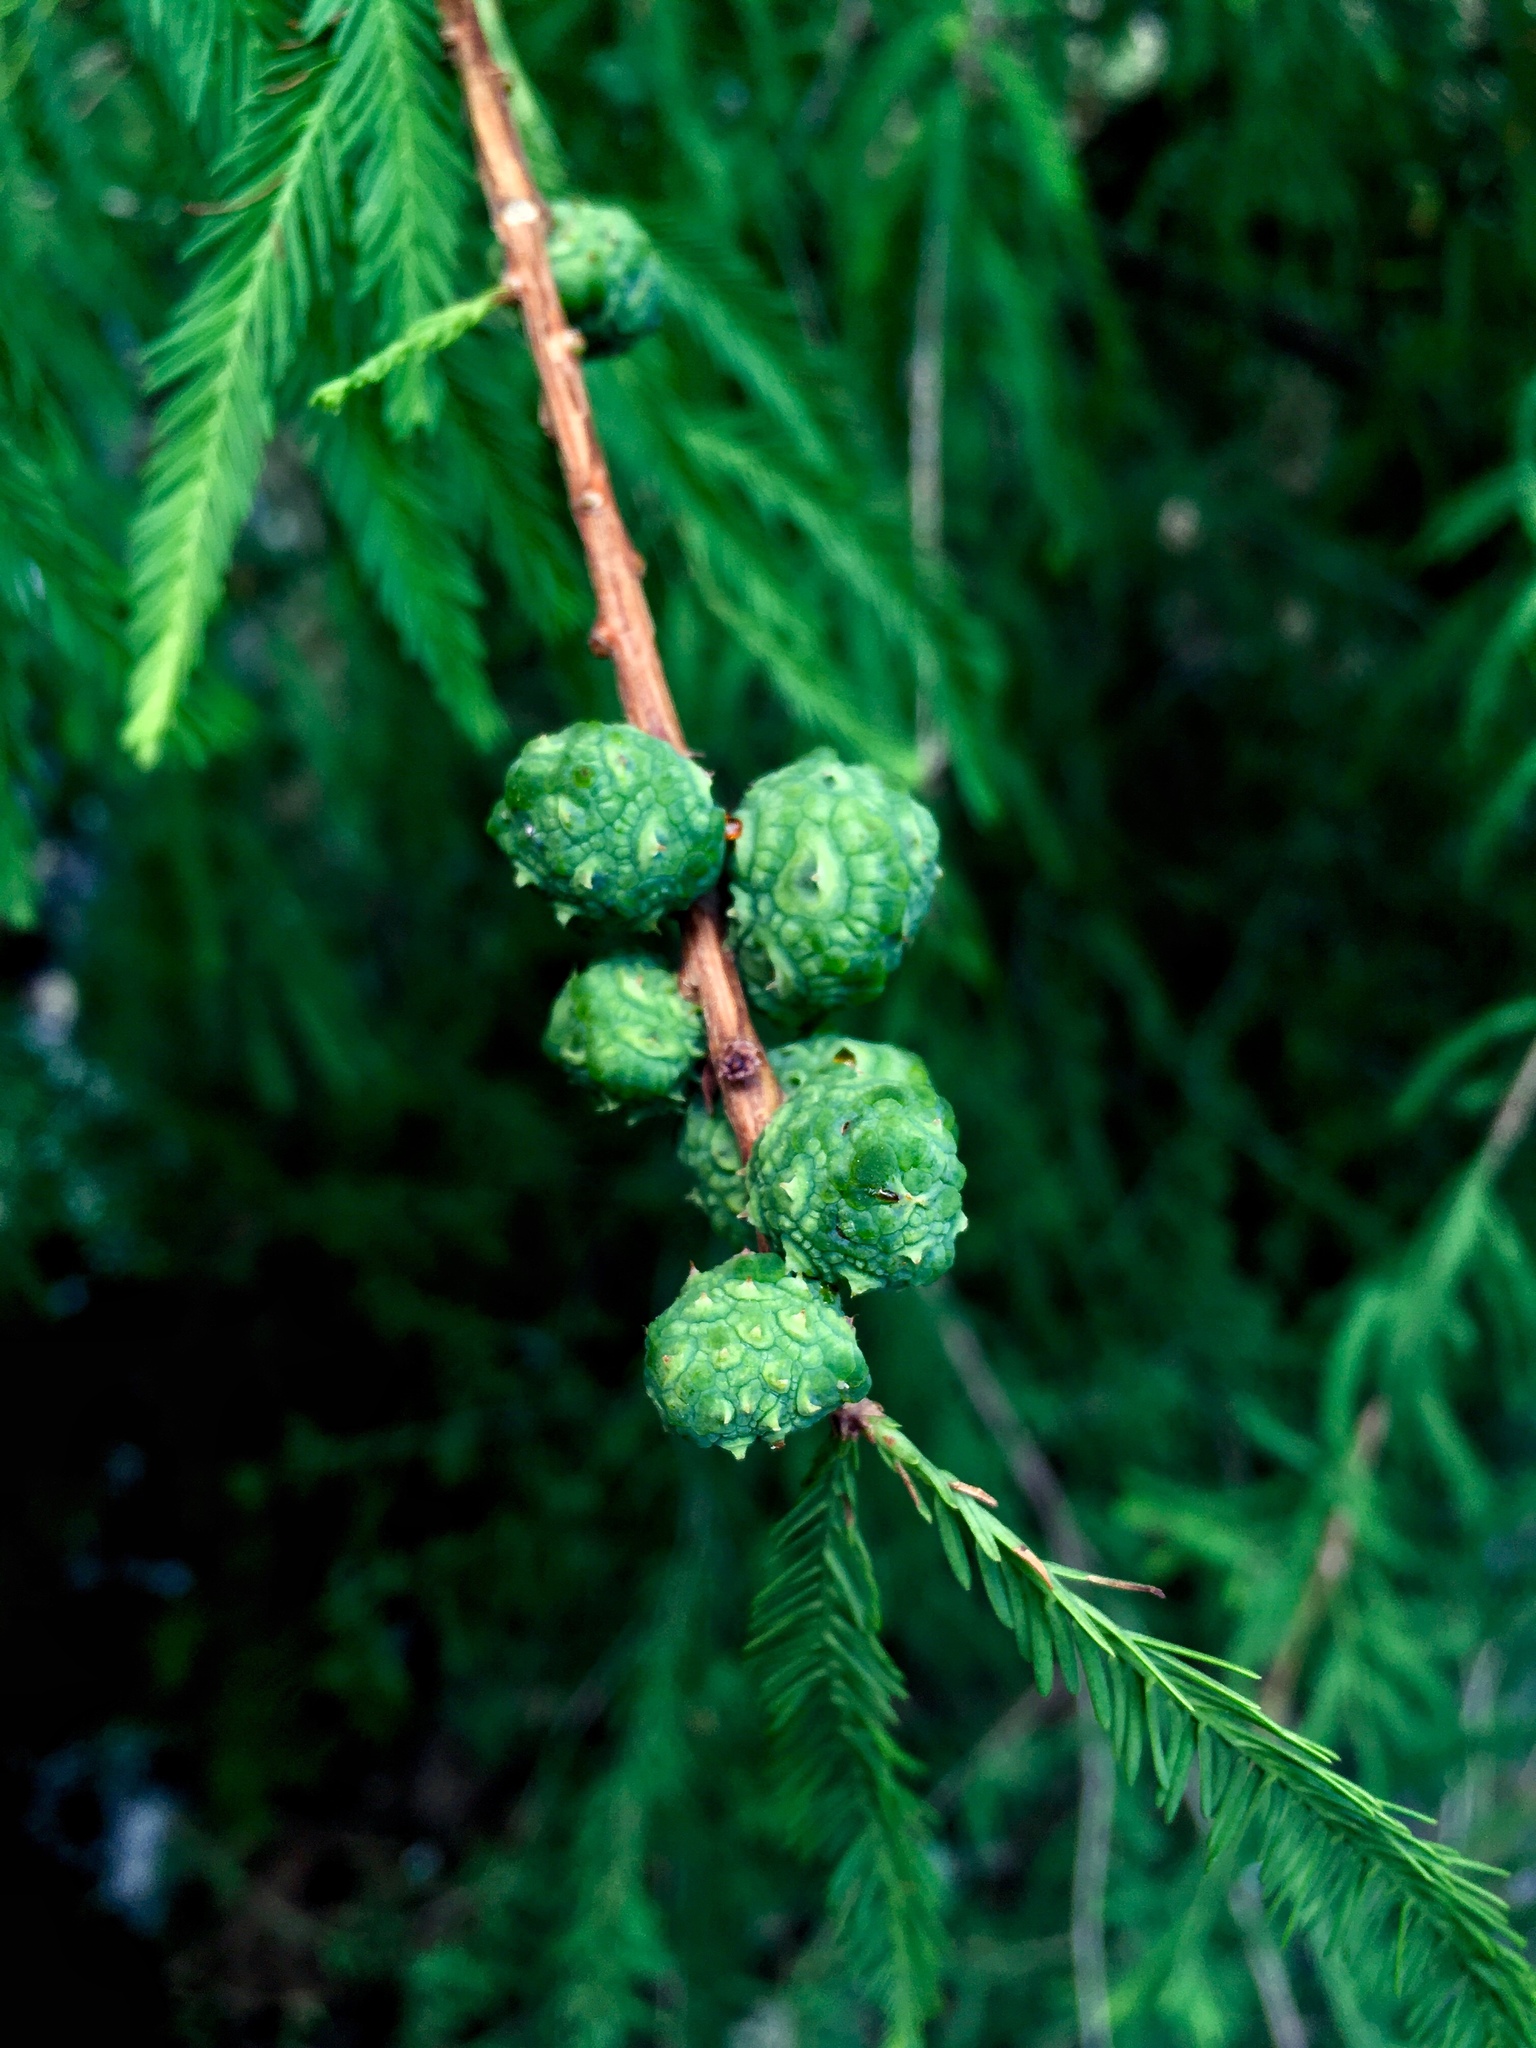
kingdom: Plantae
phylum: Tracheophyta
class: Pinopsida
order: Pinales
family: Cupressaceae
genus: Taxodium
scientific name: Taxodium mucronatum
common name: Montezume bald cypress
